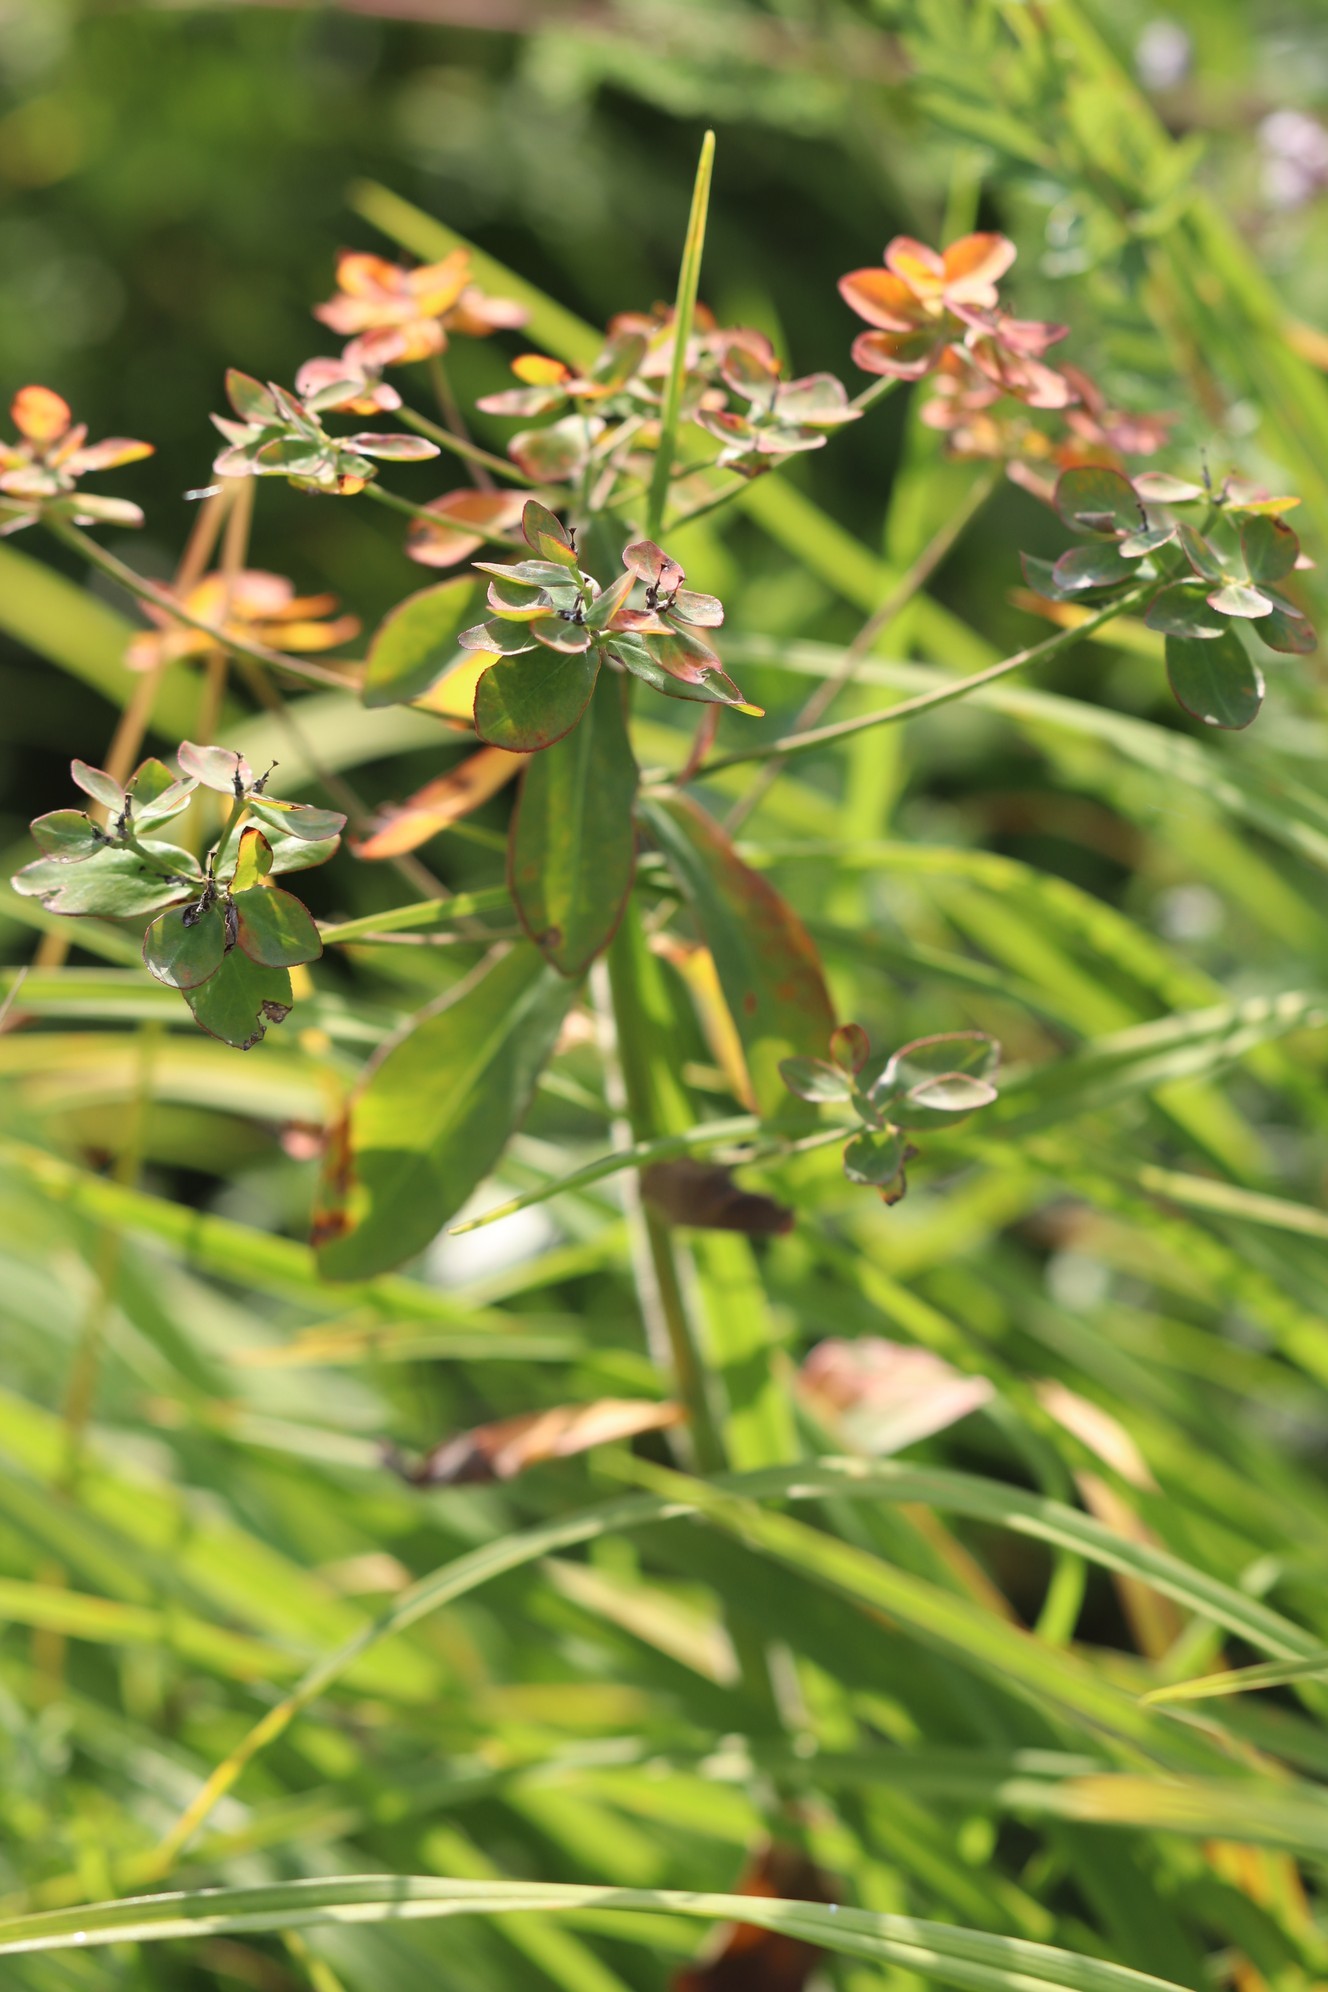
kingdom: Plantae
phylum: Tracheophyta
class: Magnoliopsida
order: Malpighiales
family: Euphorbiaceae
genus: Euphorbia
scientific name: Euphorbia pilosa
